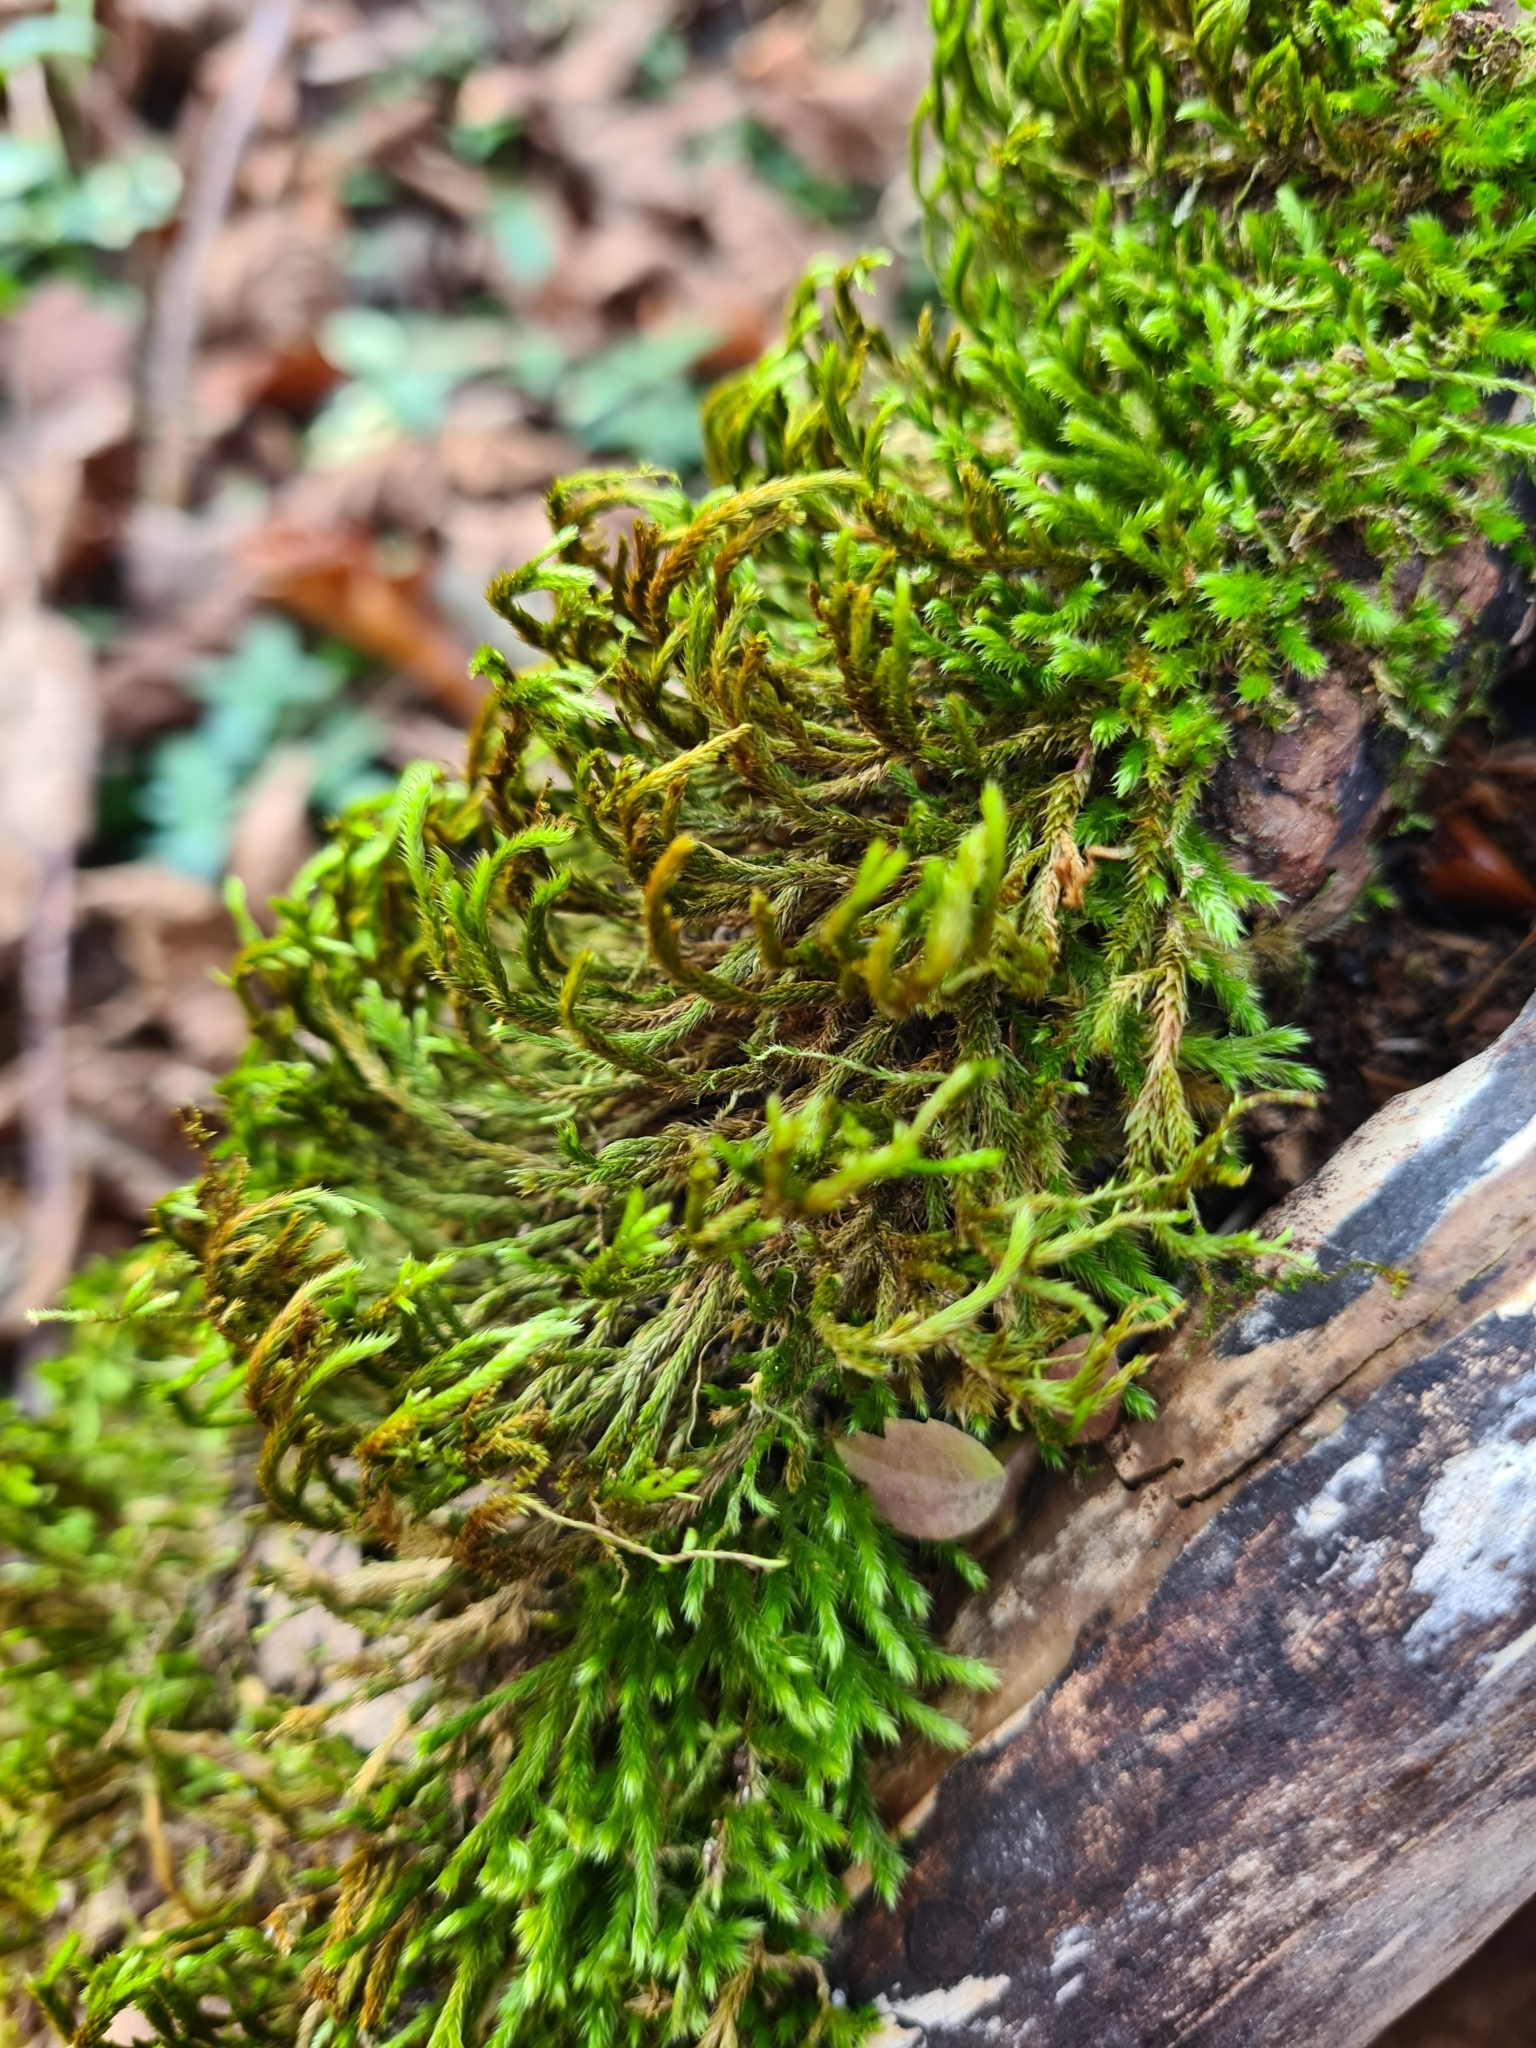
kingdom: Plantae
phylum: Bryophyta
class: Bryopsida
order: Hypnales
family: Leucodontaceae
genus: Leucodon
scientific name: Leucodon sciuroides
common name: Squirrel-tail moss
